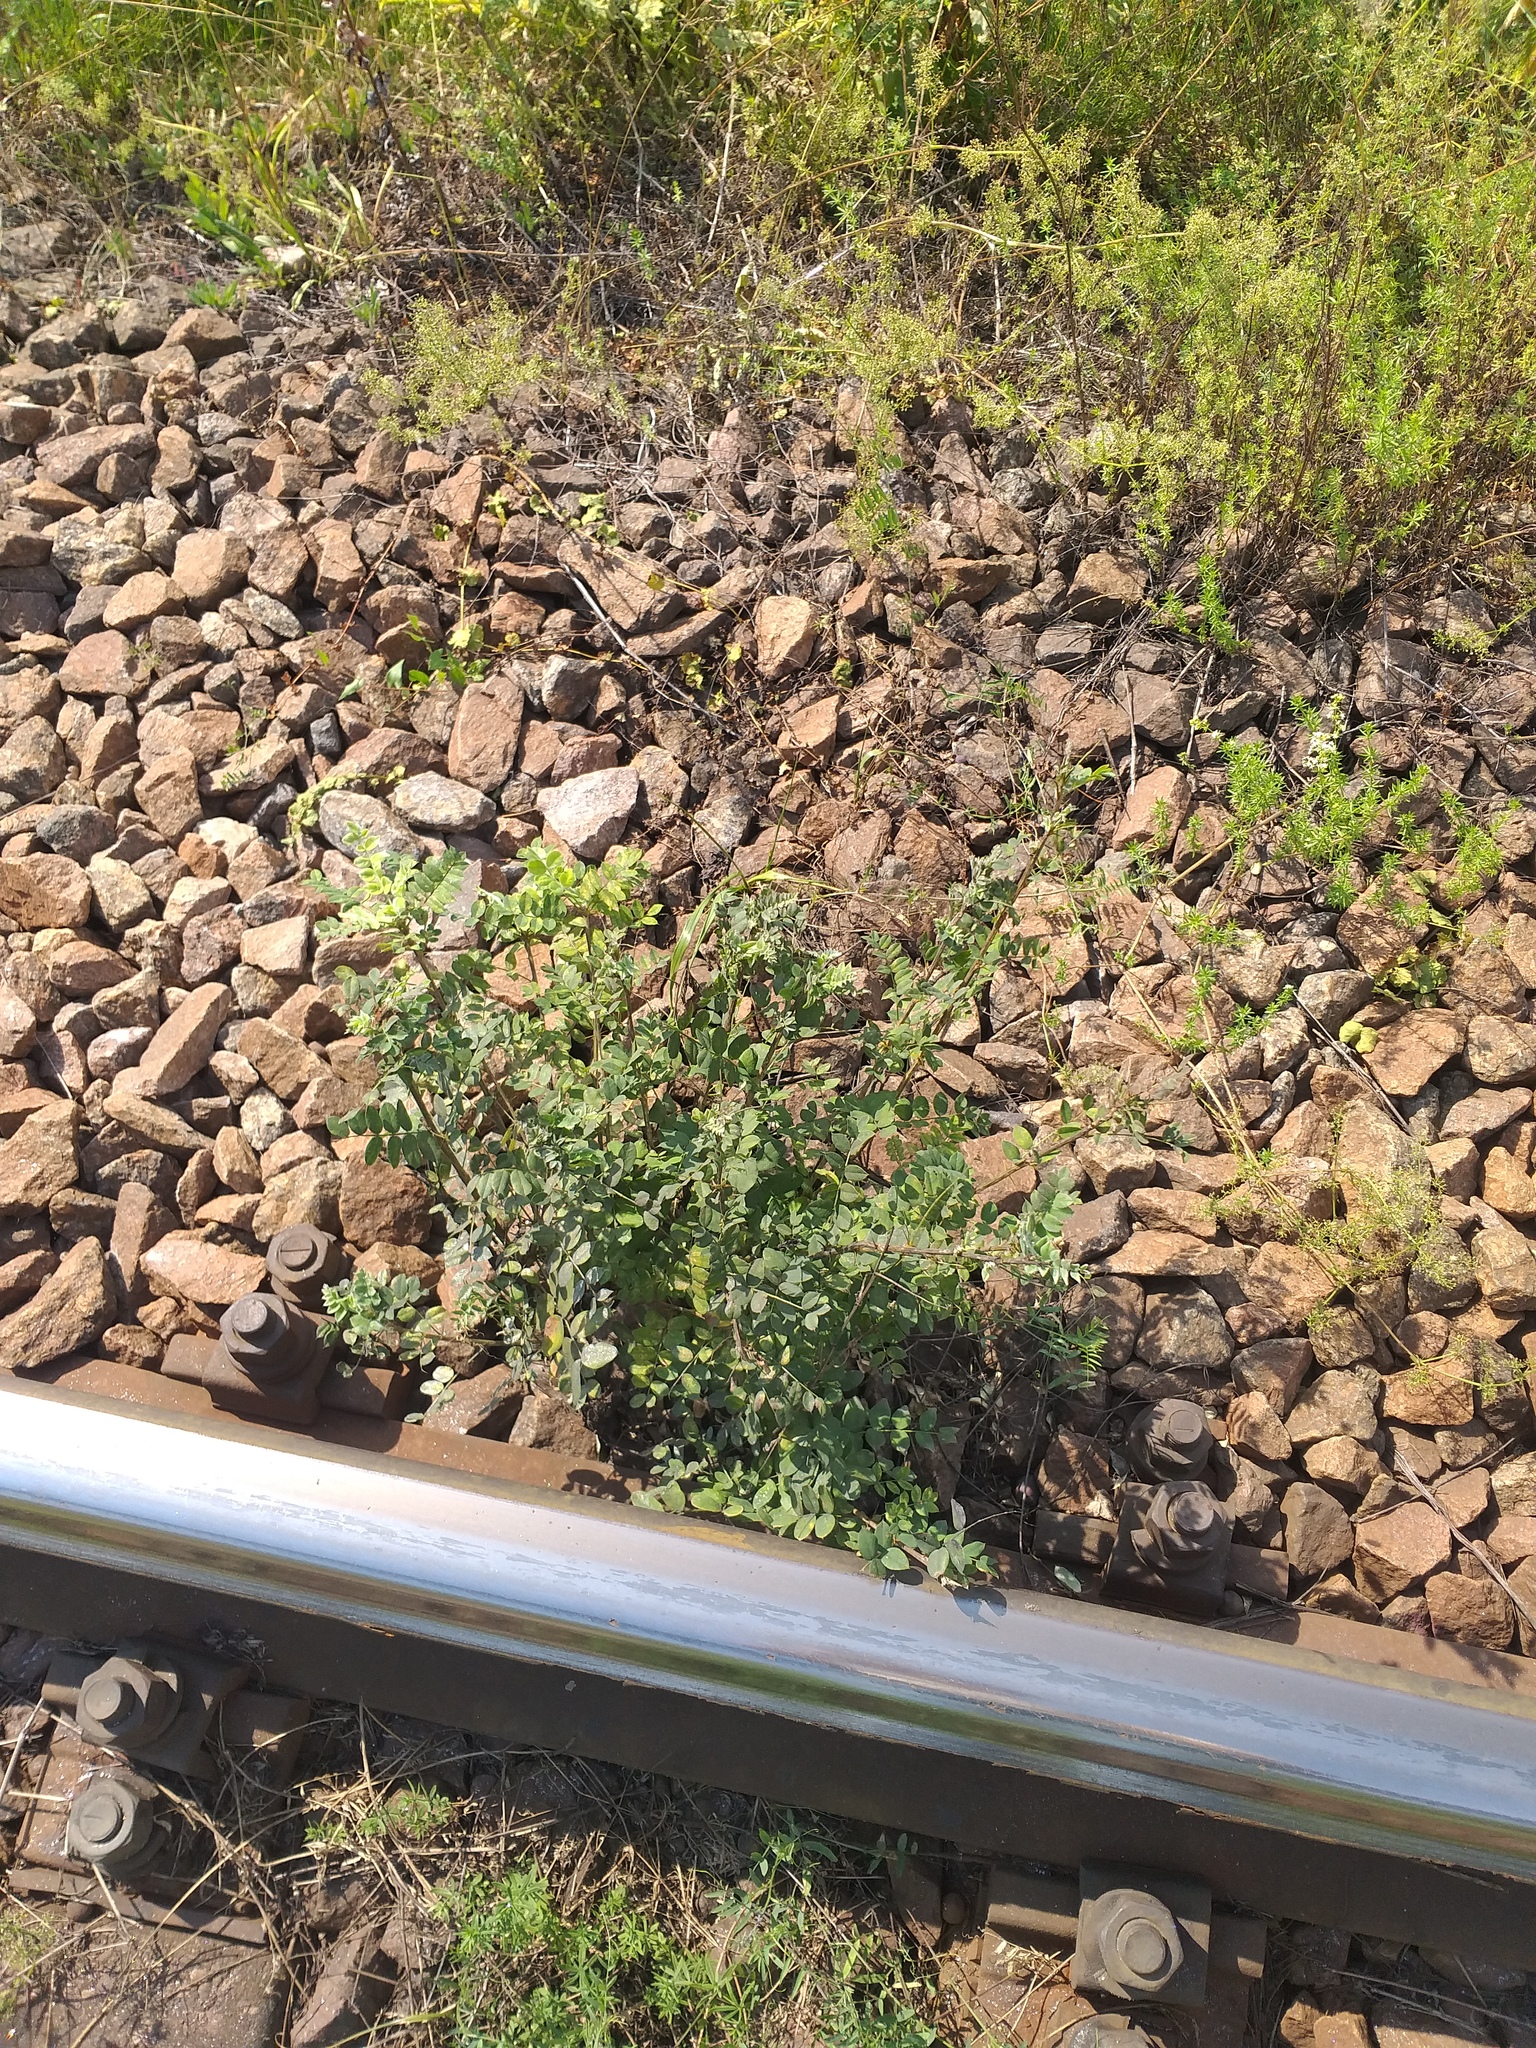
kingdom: Plantae
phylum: Tracheophyta
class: Magnoliopsida
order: Fabales
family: Fabaceae
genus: Caragana
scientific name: Caragana arborescens
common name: Siberian peashrub
